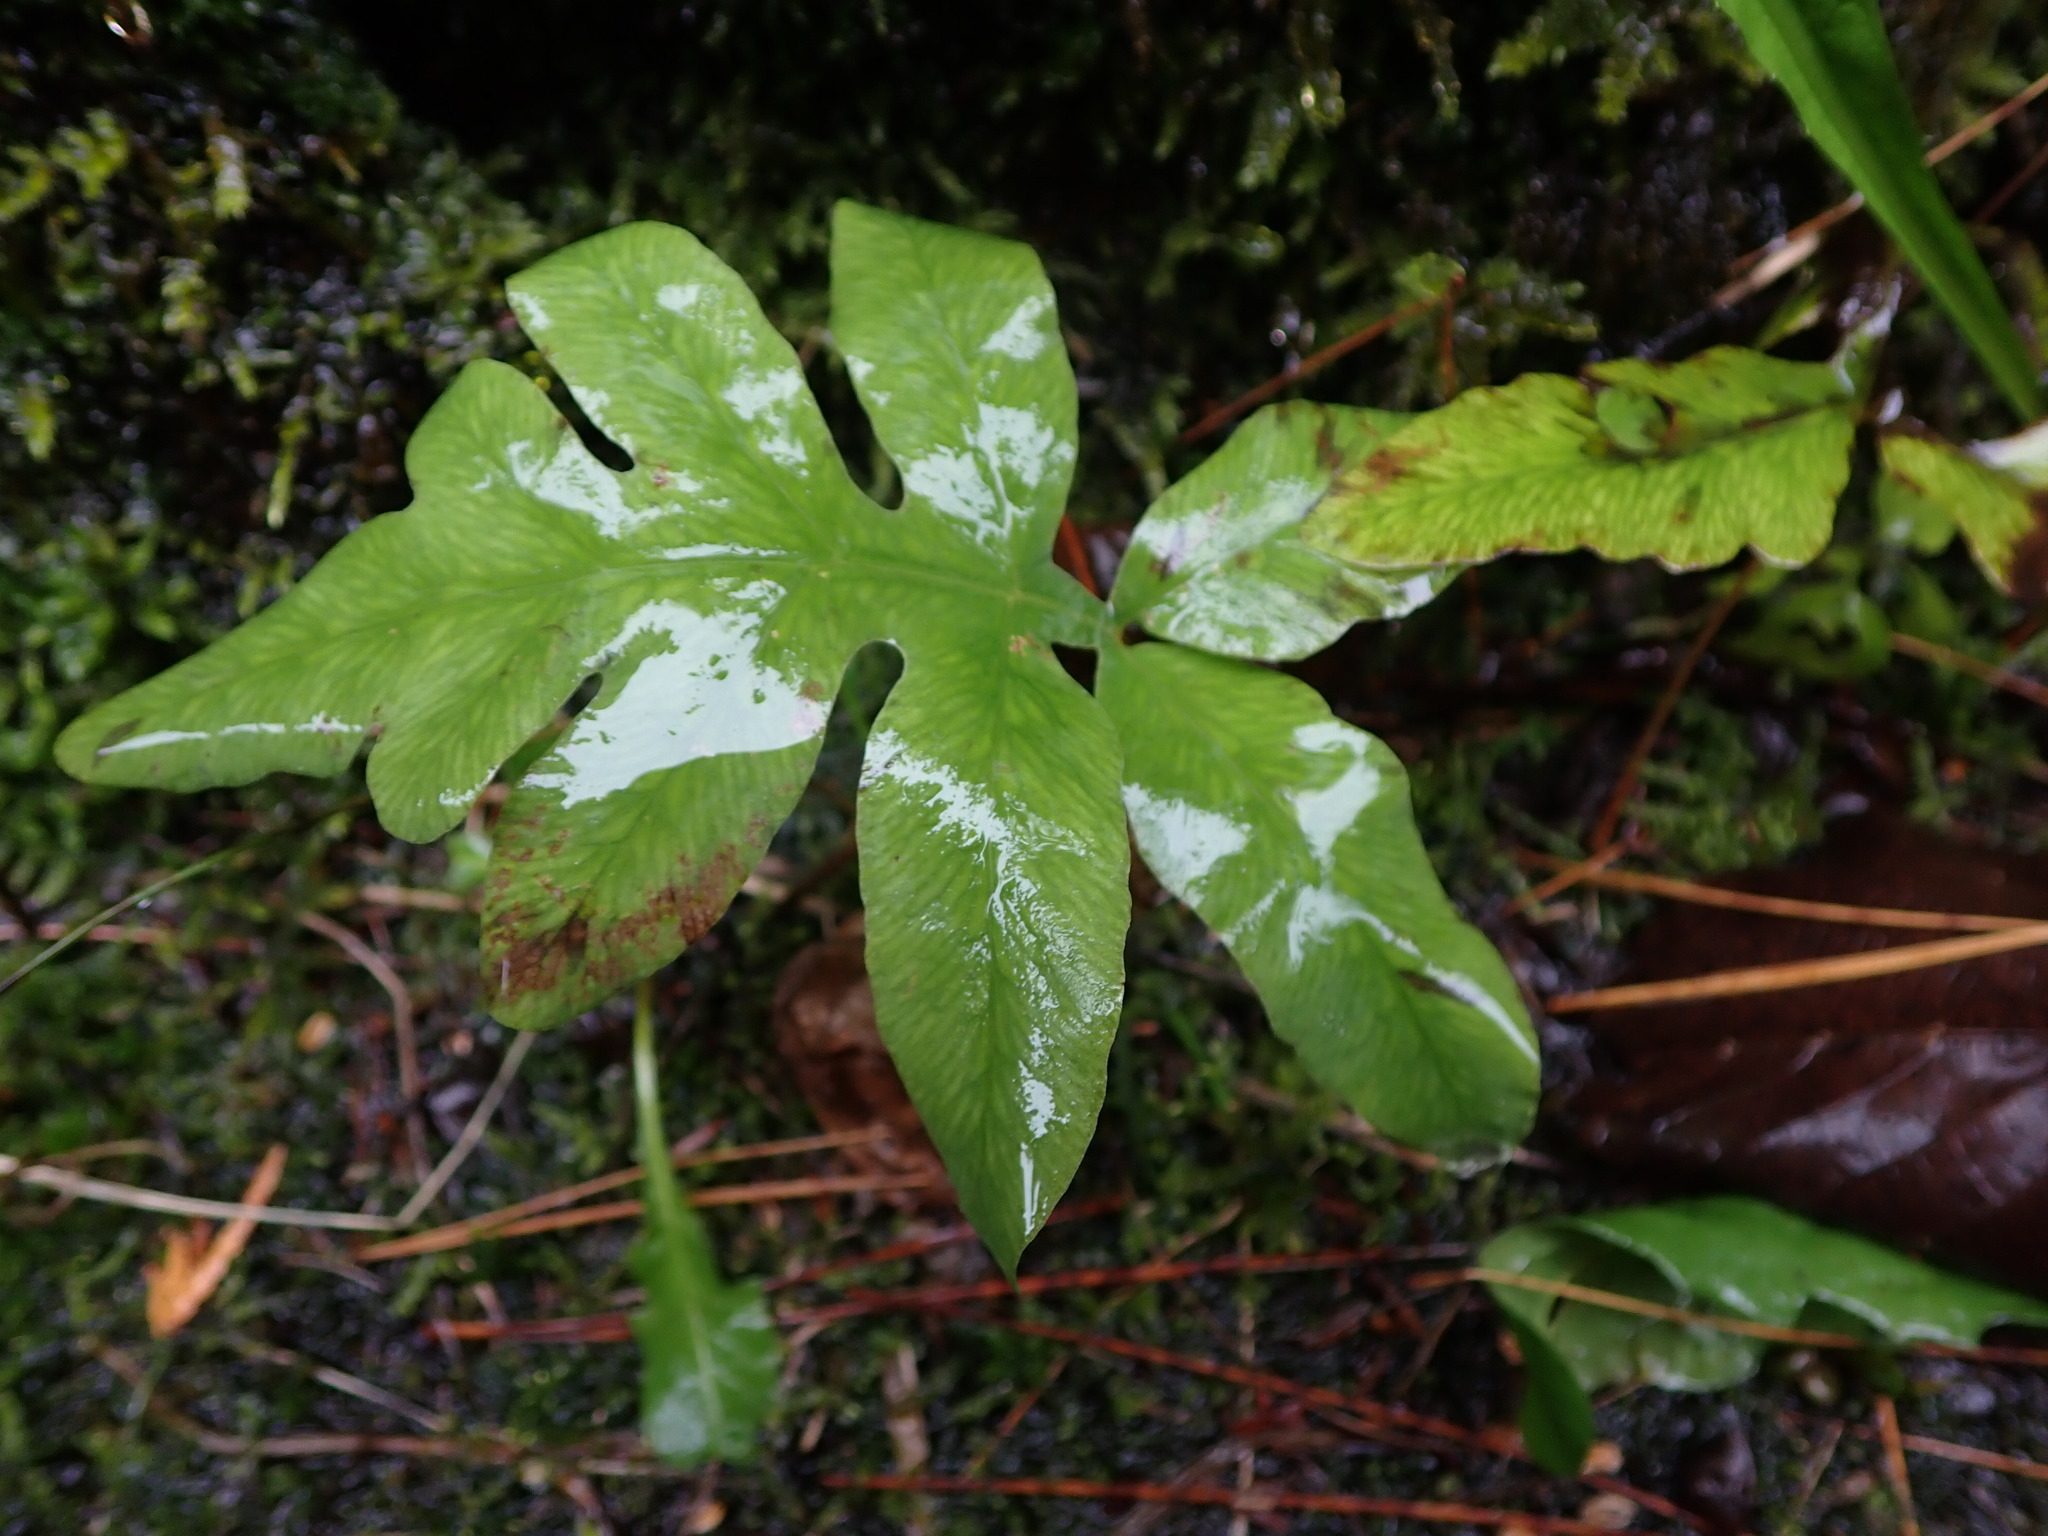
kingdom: Plantae
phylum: Tracheophyta
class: Polypodiopsida
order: Polypodiales
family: Onocleaceae
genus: Onoclea
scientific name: Onoclea sensibilis
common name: Sensitive fern
